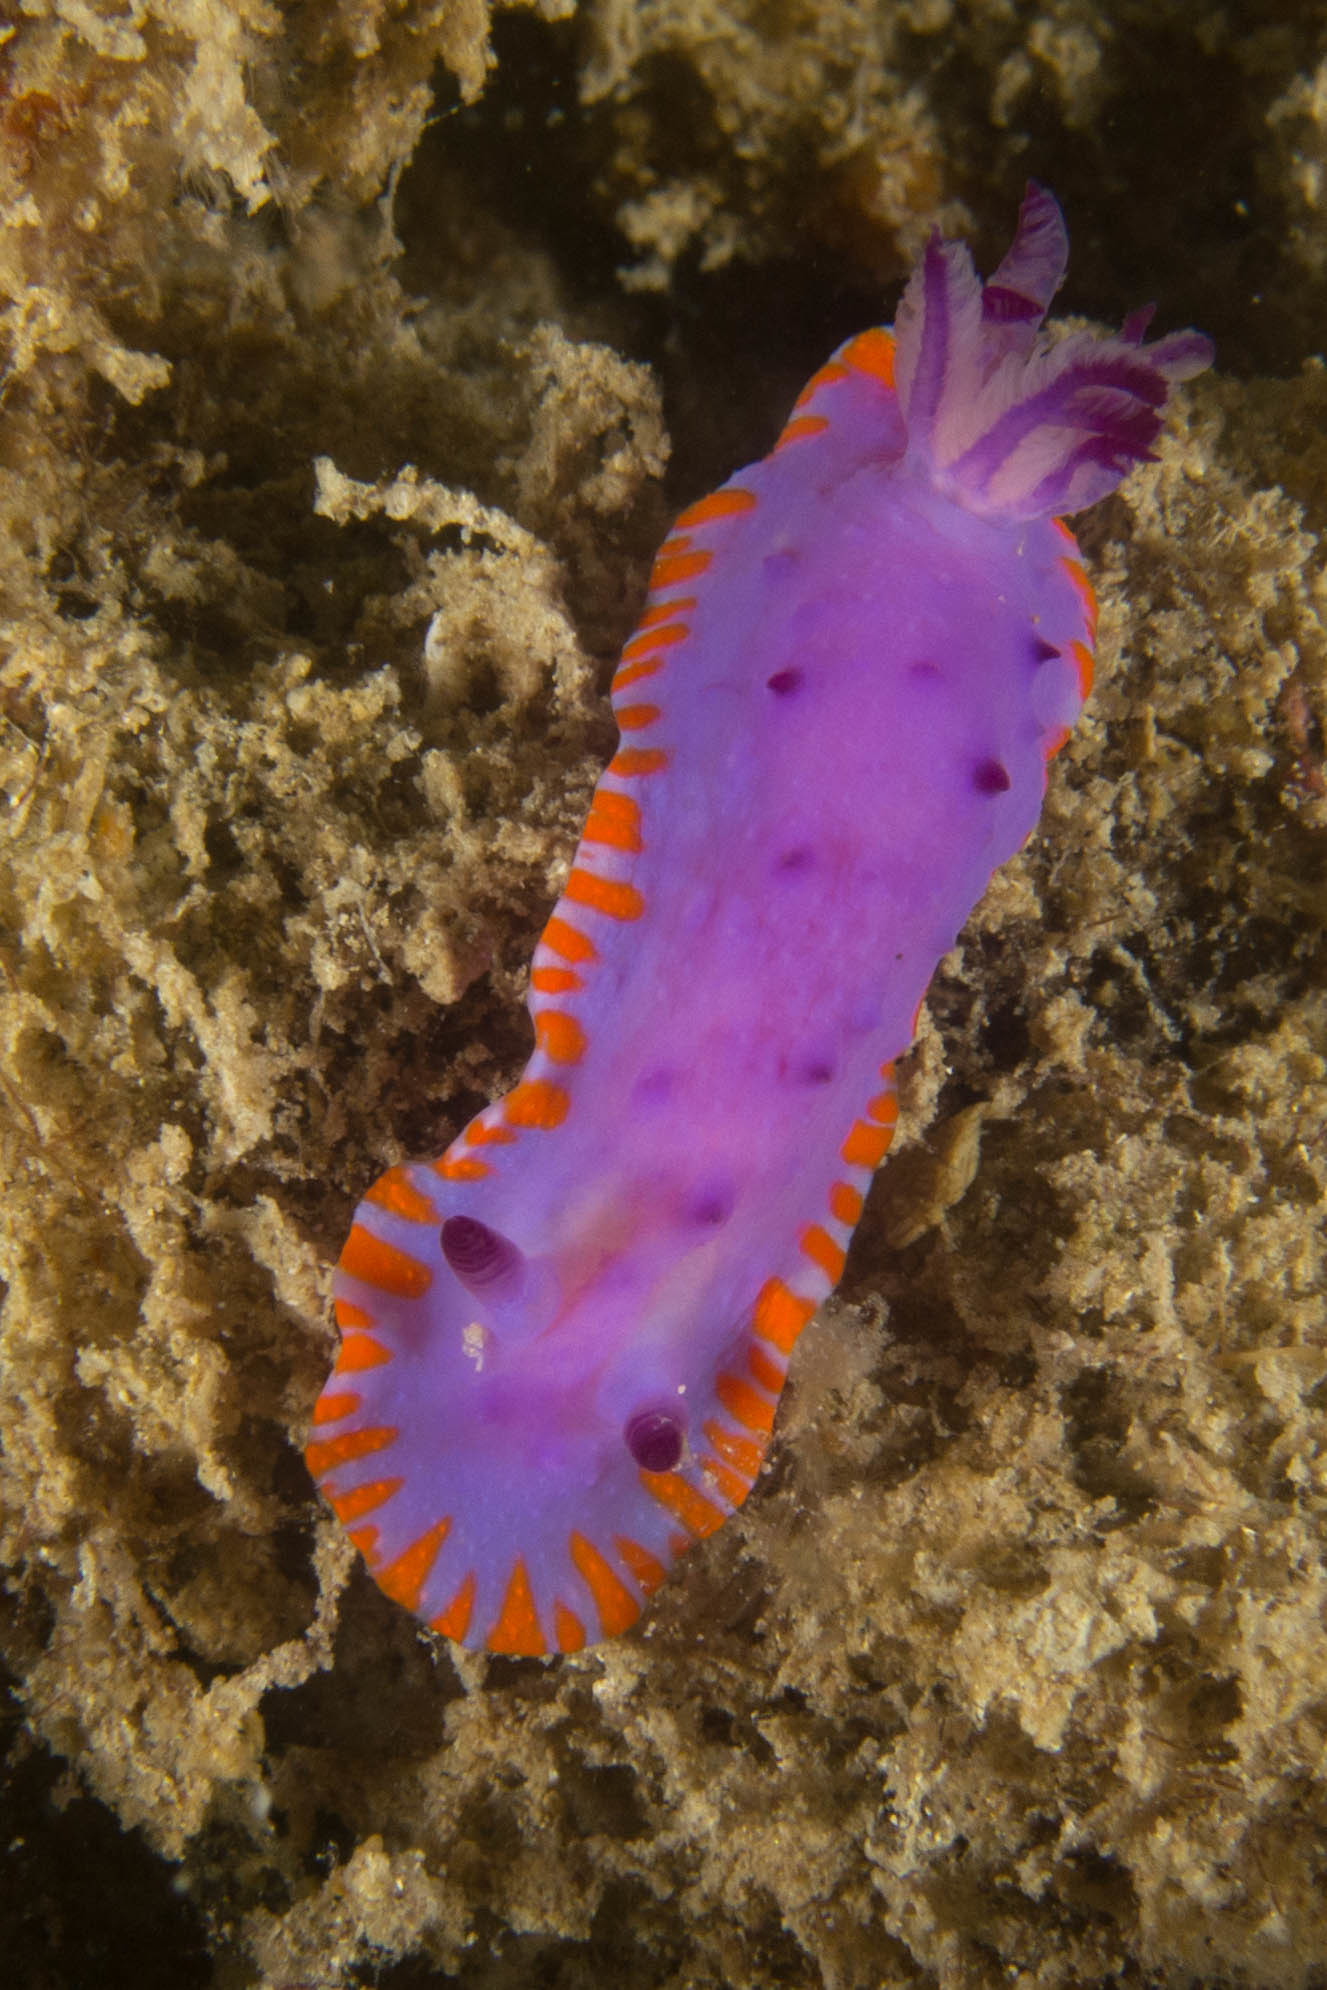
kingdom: Animalia
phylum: Mollusca
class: Gastropoda
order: Nudibranchia
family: Chromodorididae
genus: Mexichromis
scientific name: Mexichromis macropus
